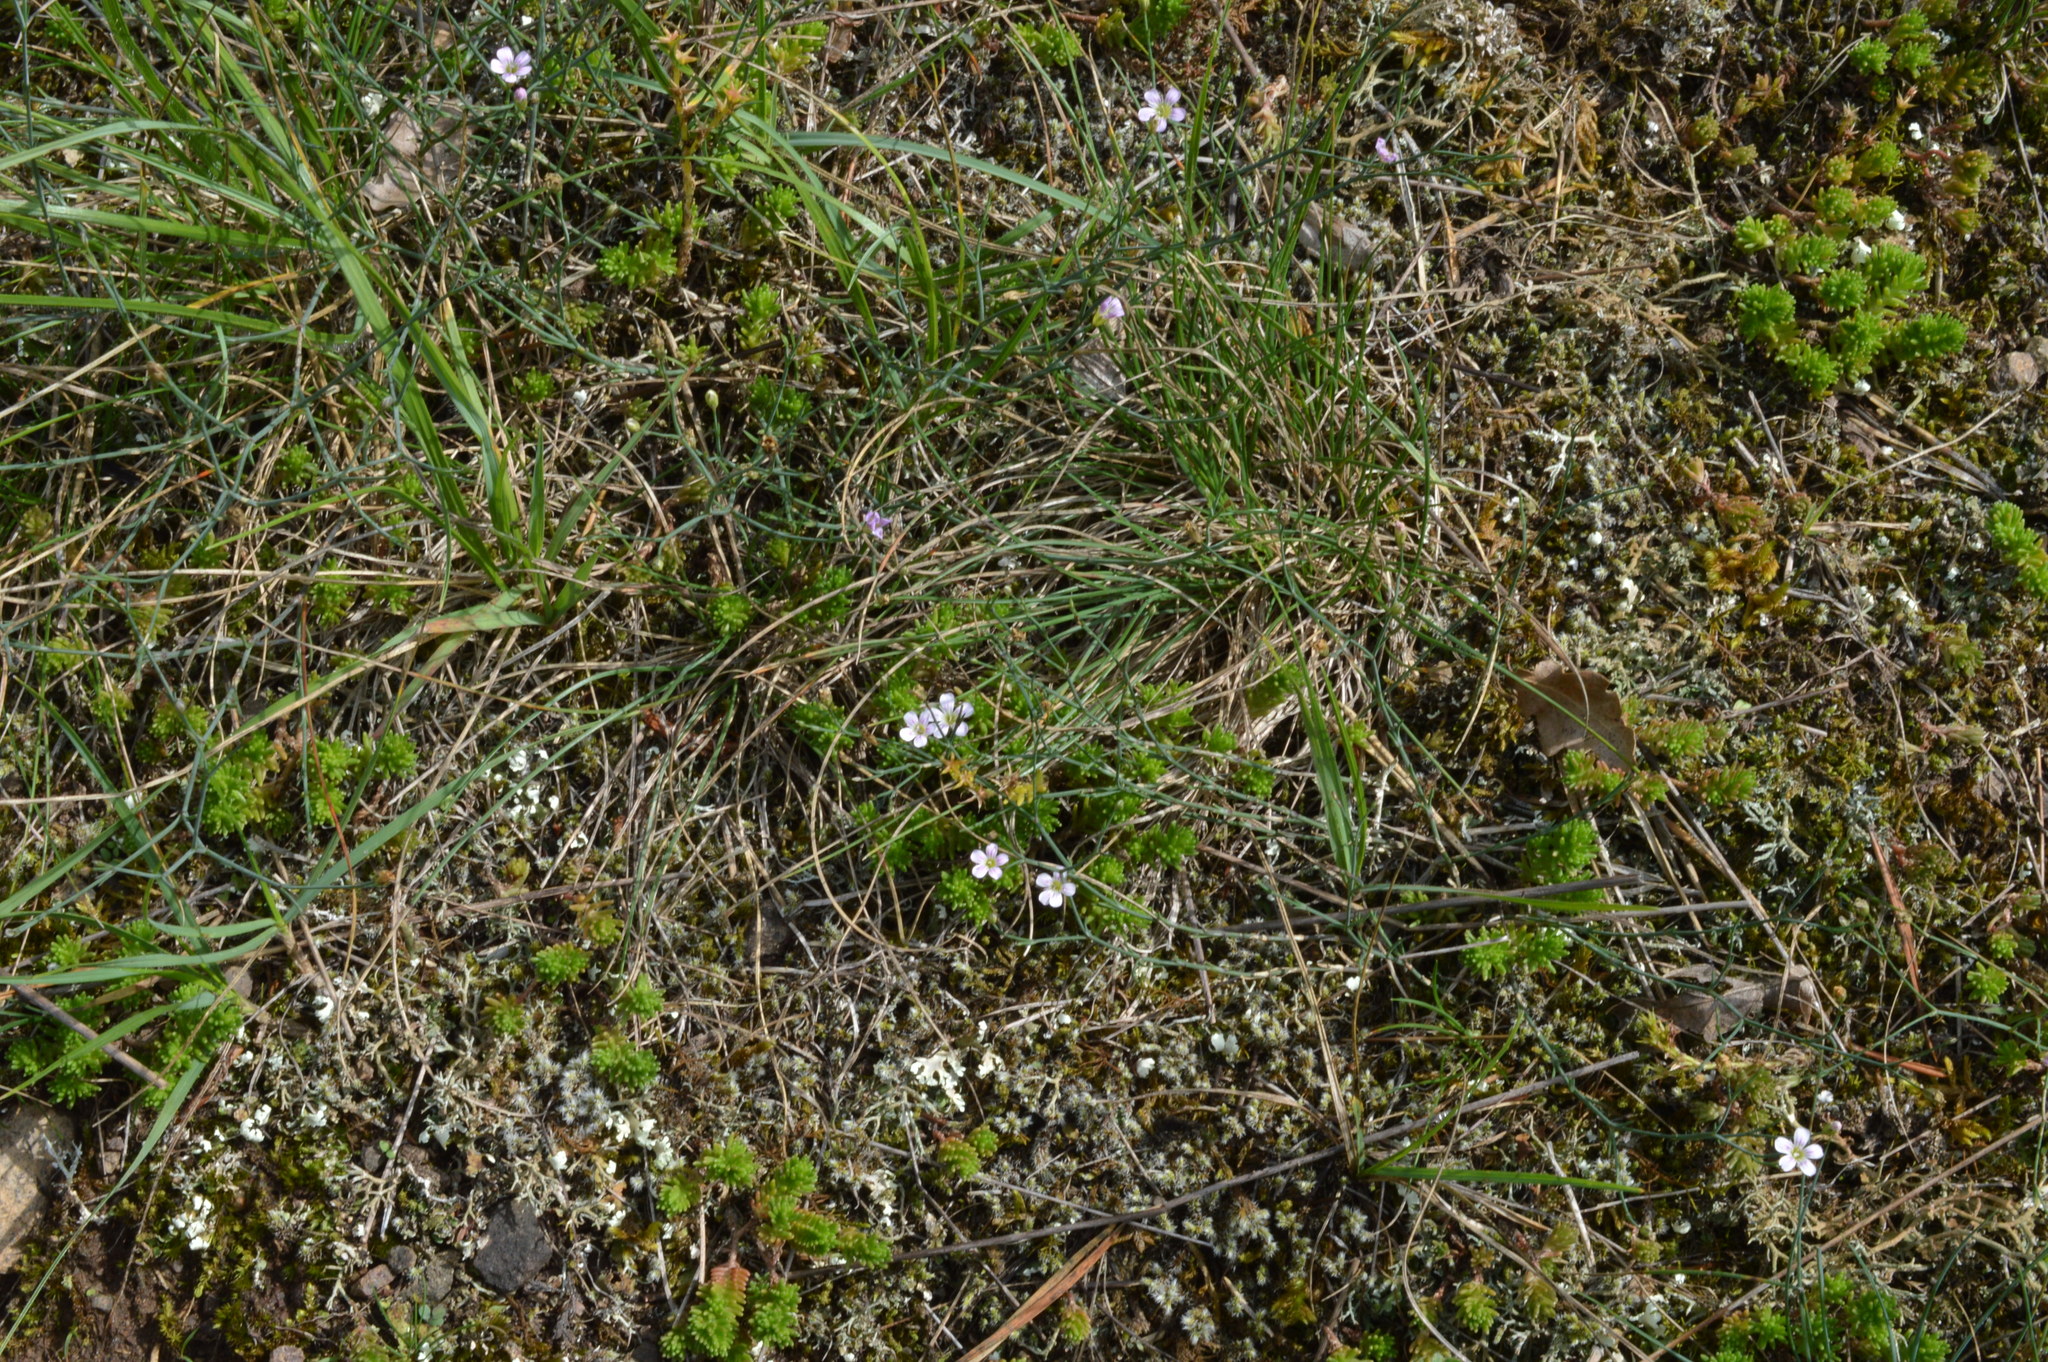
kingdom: Plantae
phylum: Tracheophyta
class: Magnoliopsida
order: Caryophyllales
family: Caryophyllaceae
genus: Petrorhagia
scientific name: Petrorhagia saxifraga
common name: Tunicflower
